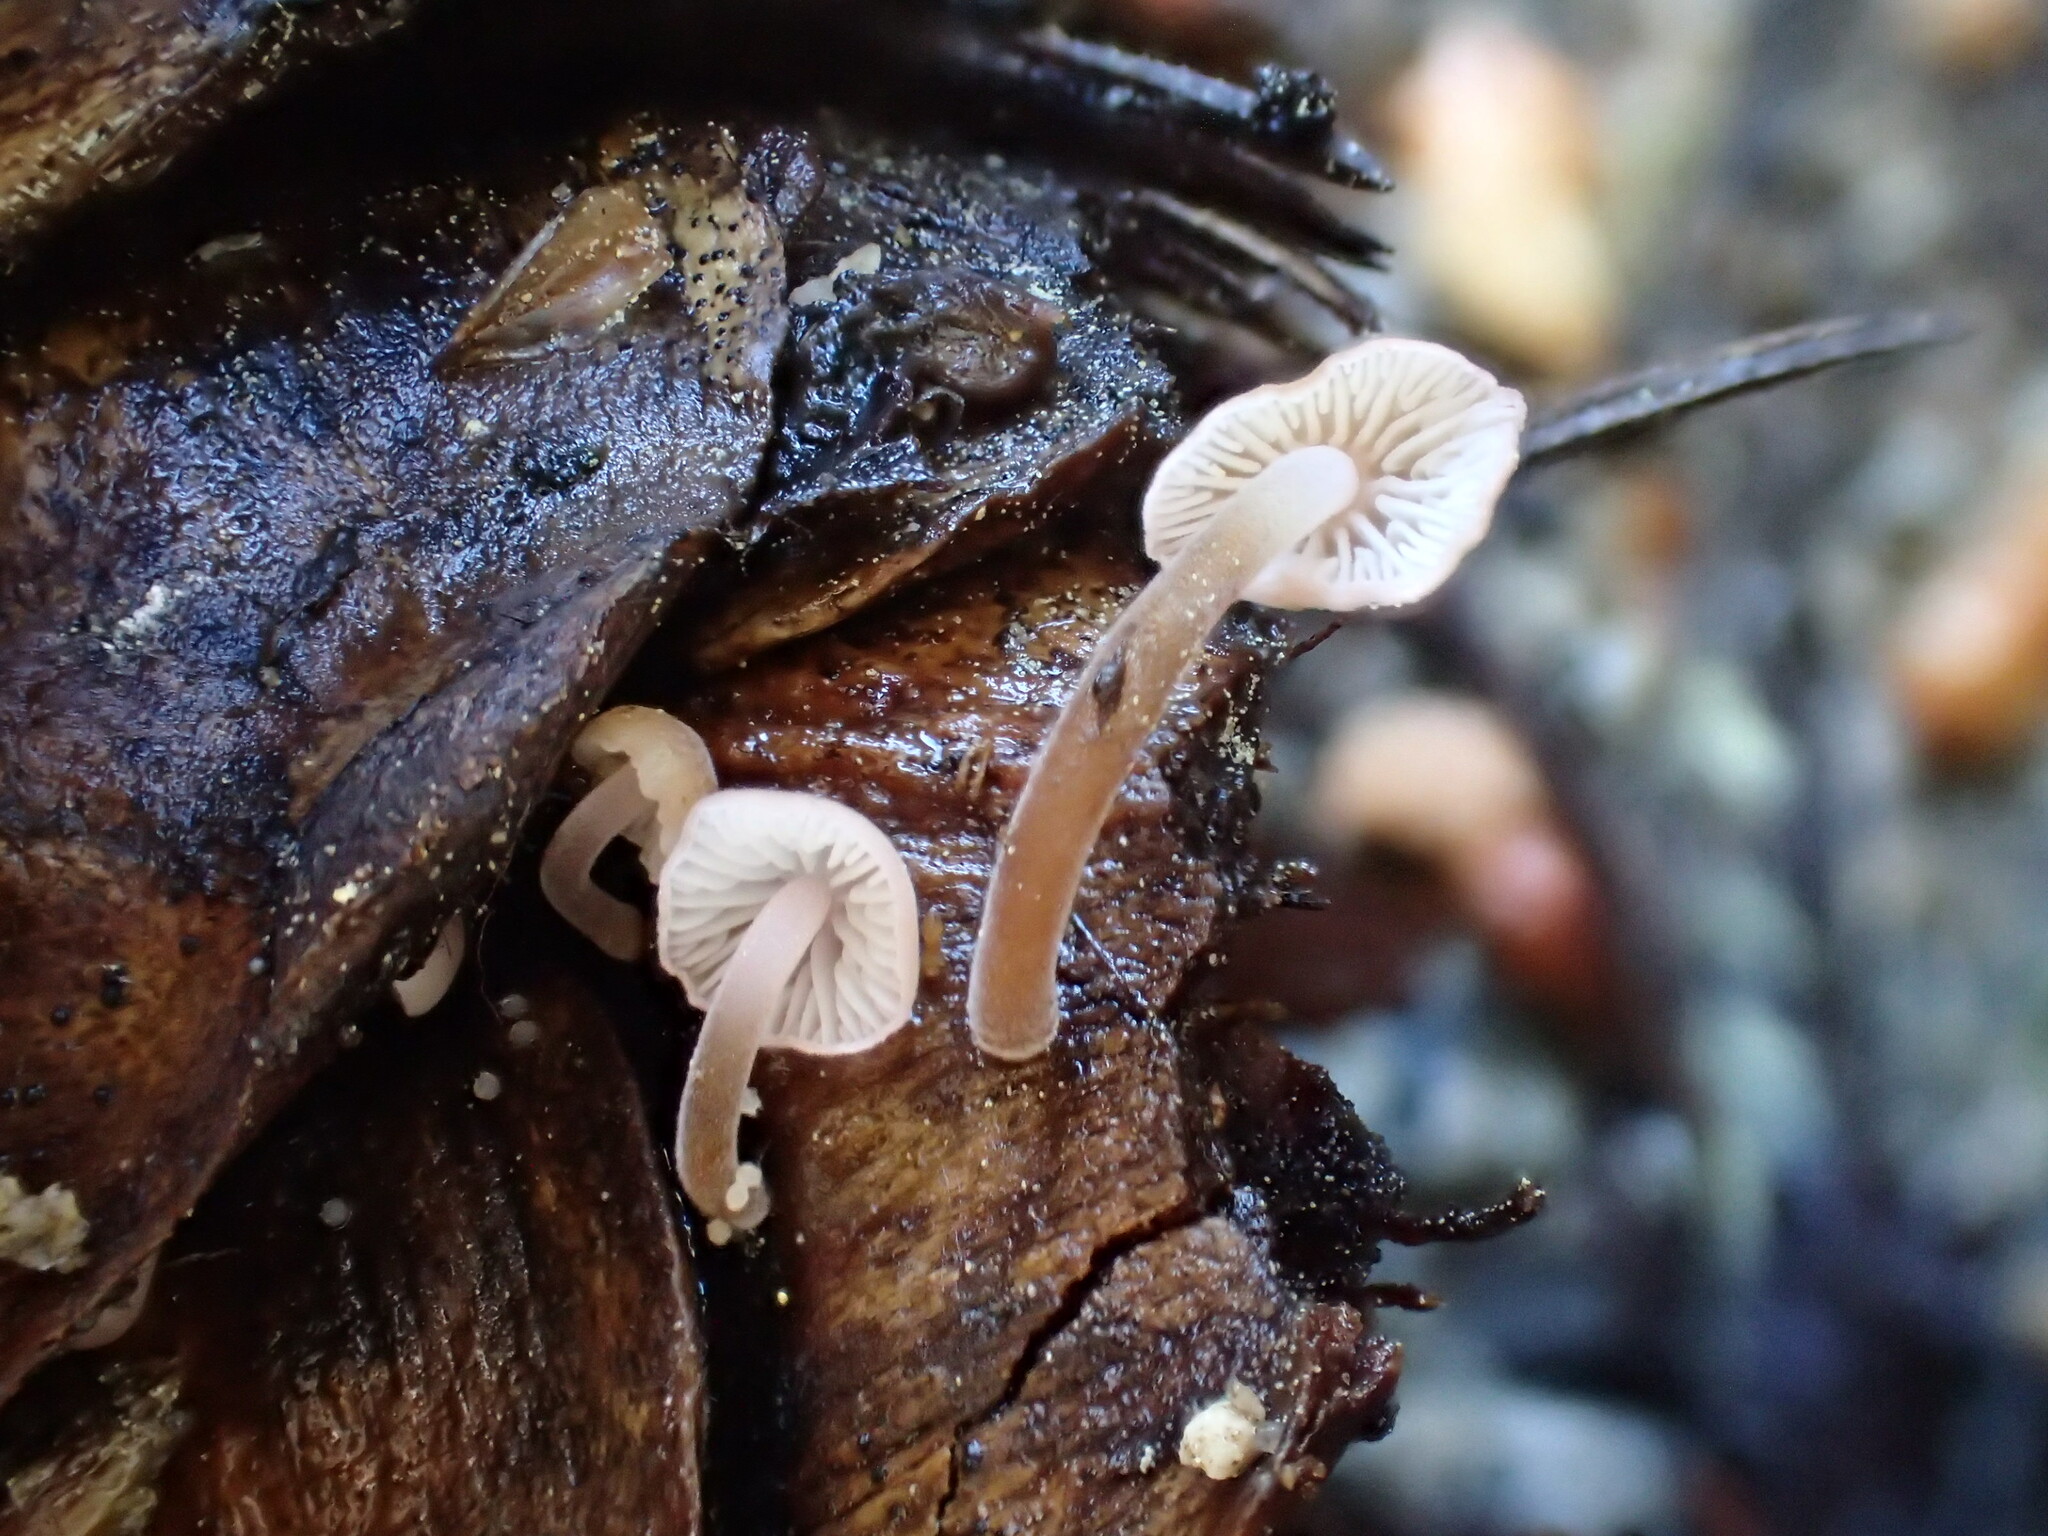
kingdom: Fungi
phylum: Basidiomycota
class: Agaricomycetes
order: Agaricales
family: Physalacriaceae
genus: Strobilurus
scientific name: Strobilurus diminutivus
